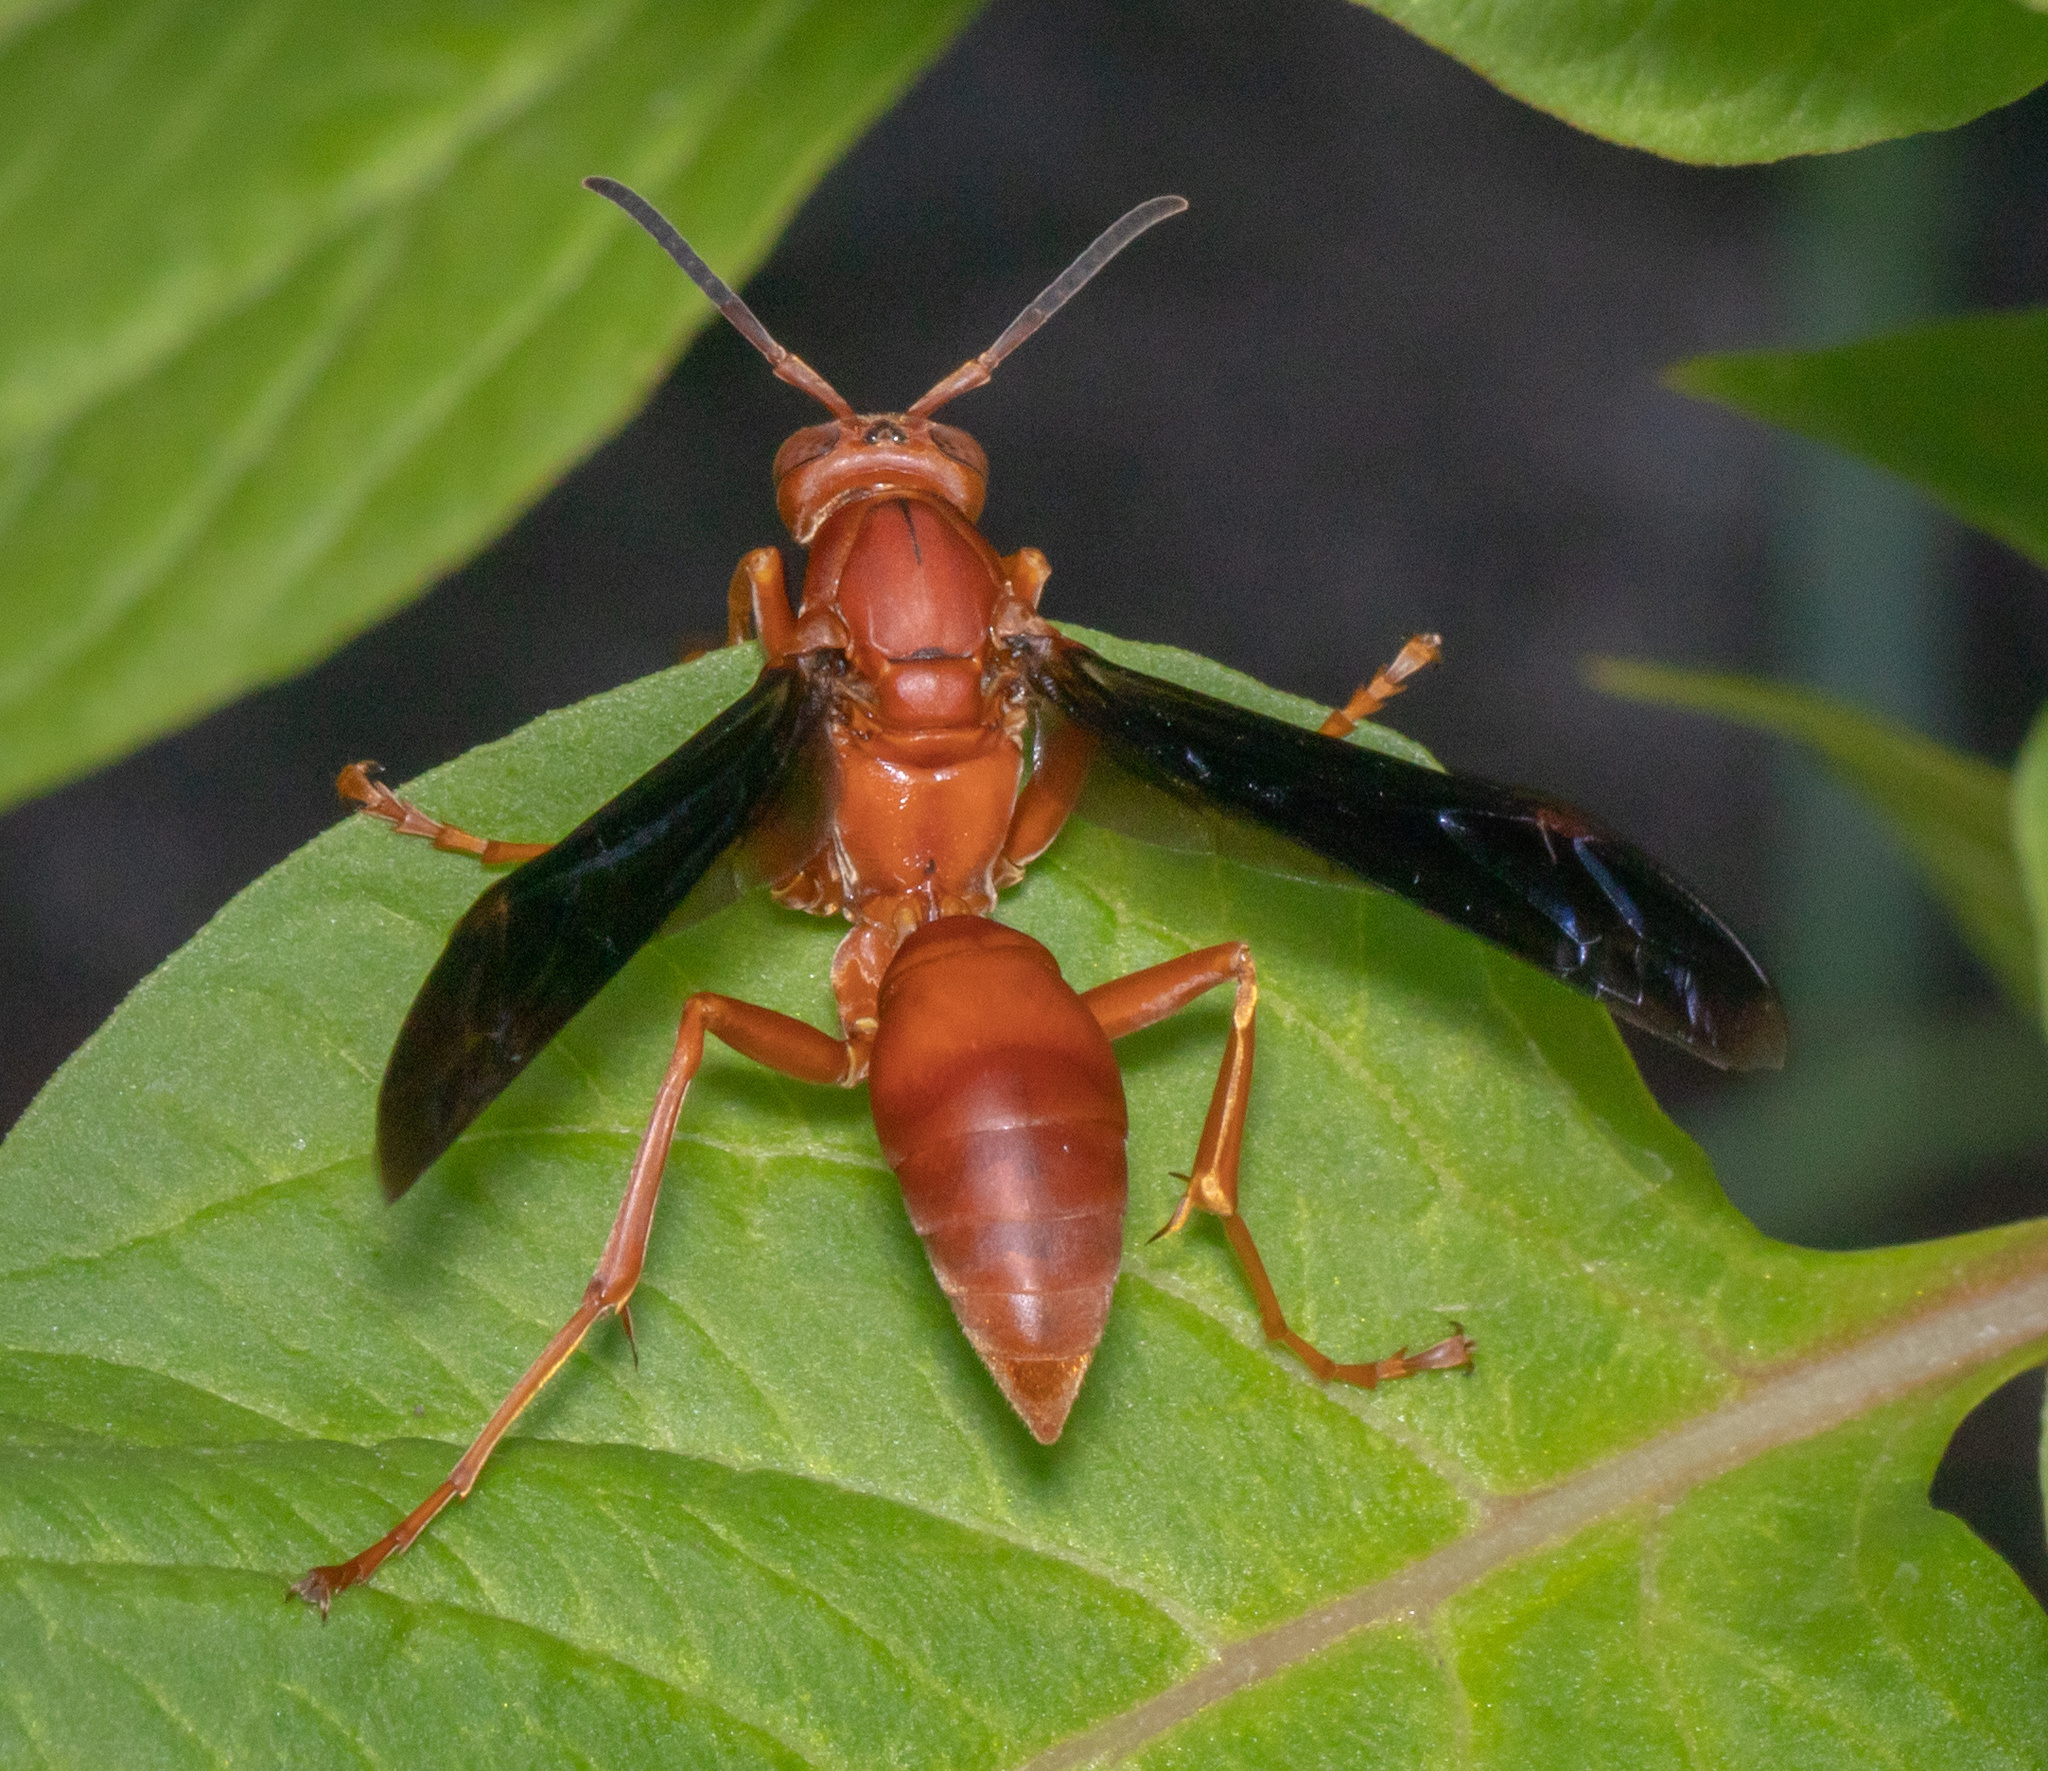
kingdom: Animalia
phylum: Arthropoda
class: Insecta
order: Hymenoptera
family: Vespidae
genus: Fuscopolistes
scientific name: Fuscopolistes
